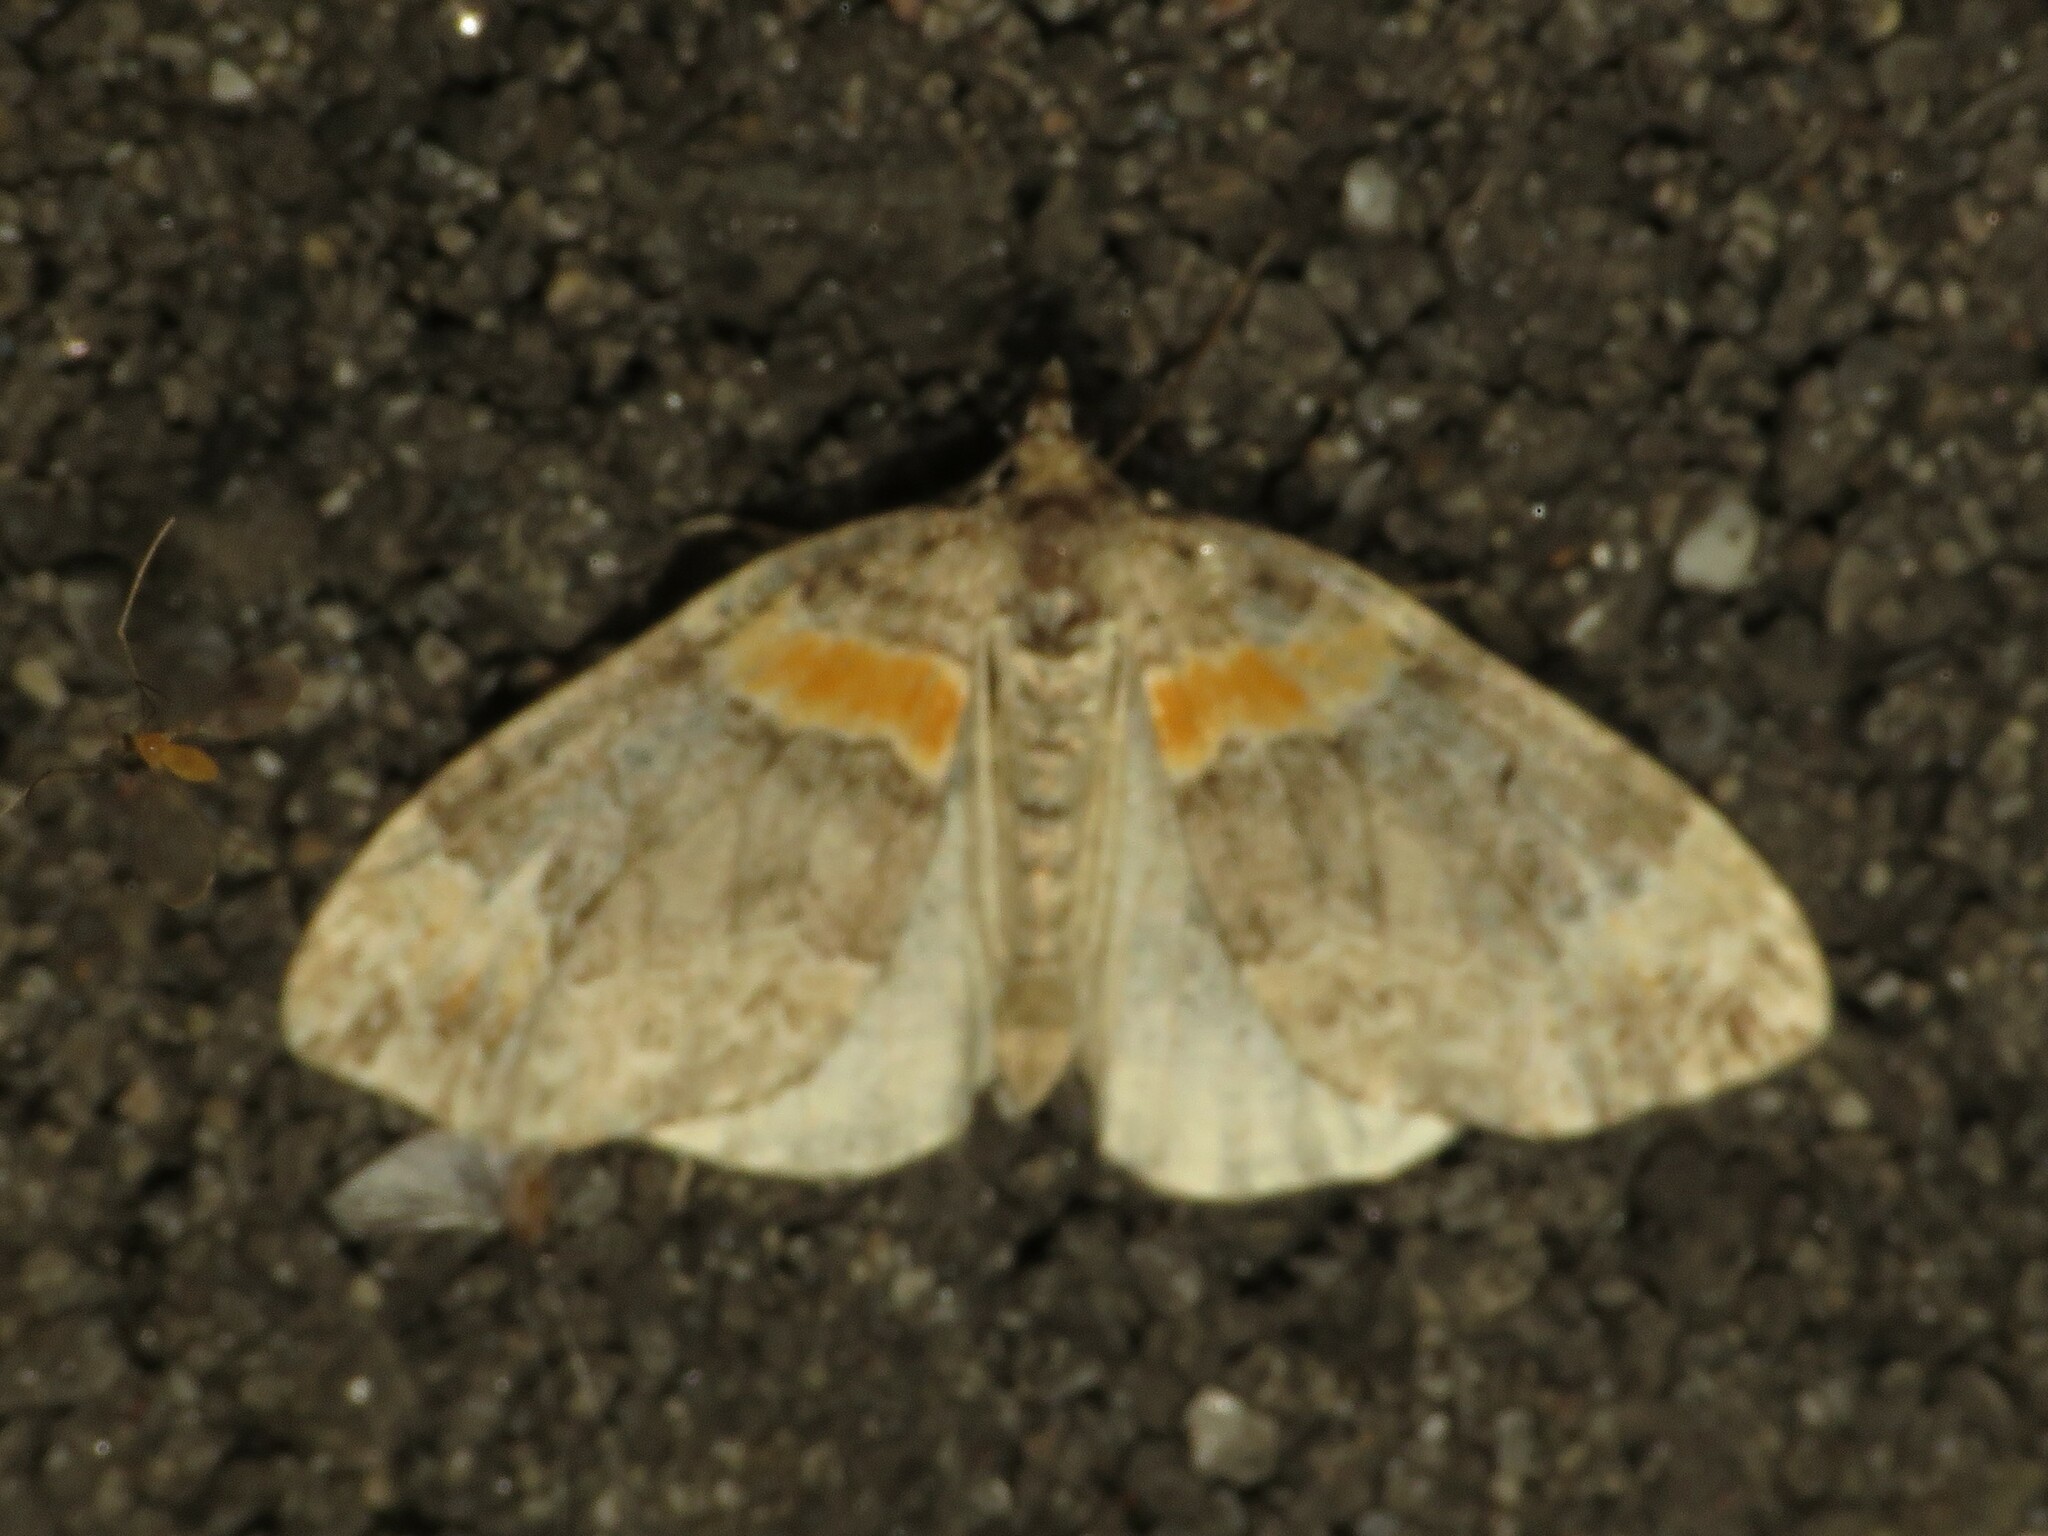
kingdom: Animalia
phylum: Arthropoda
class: Insecta
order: Lepidoptera
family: Geometridae
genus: Dysstroma
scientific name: Dysstroma hersiliata
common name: Orange-barred carpet
